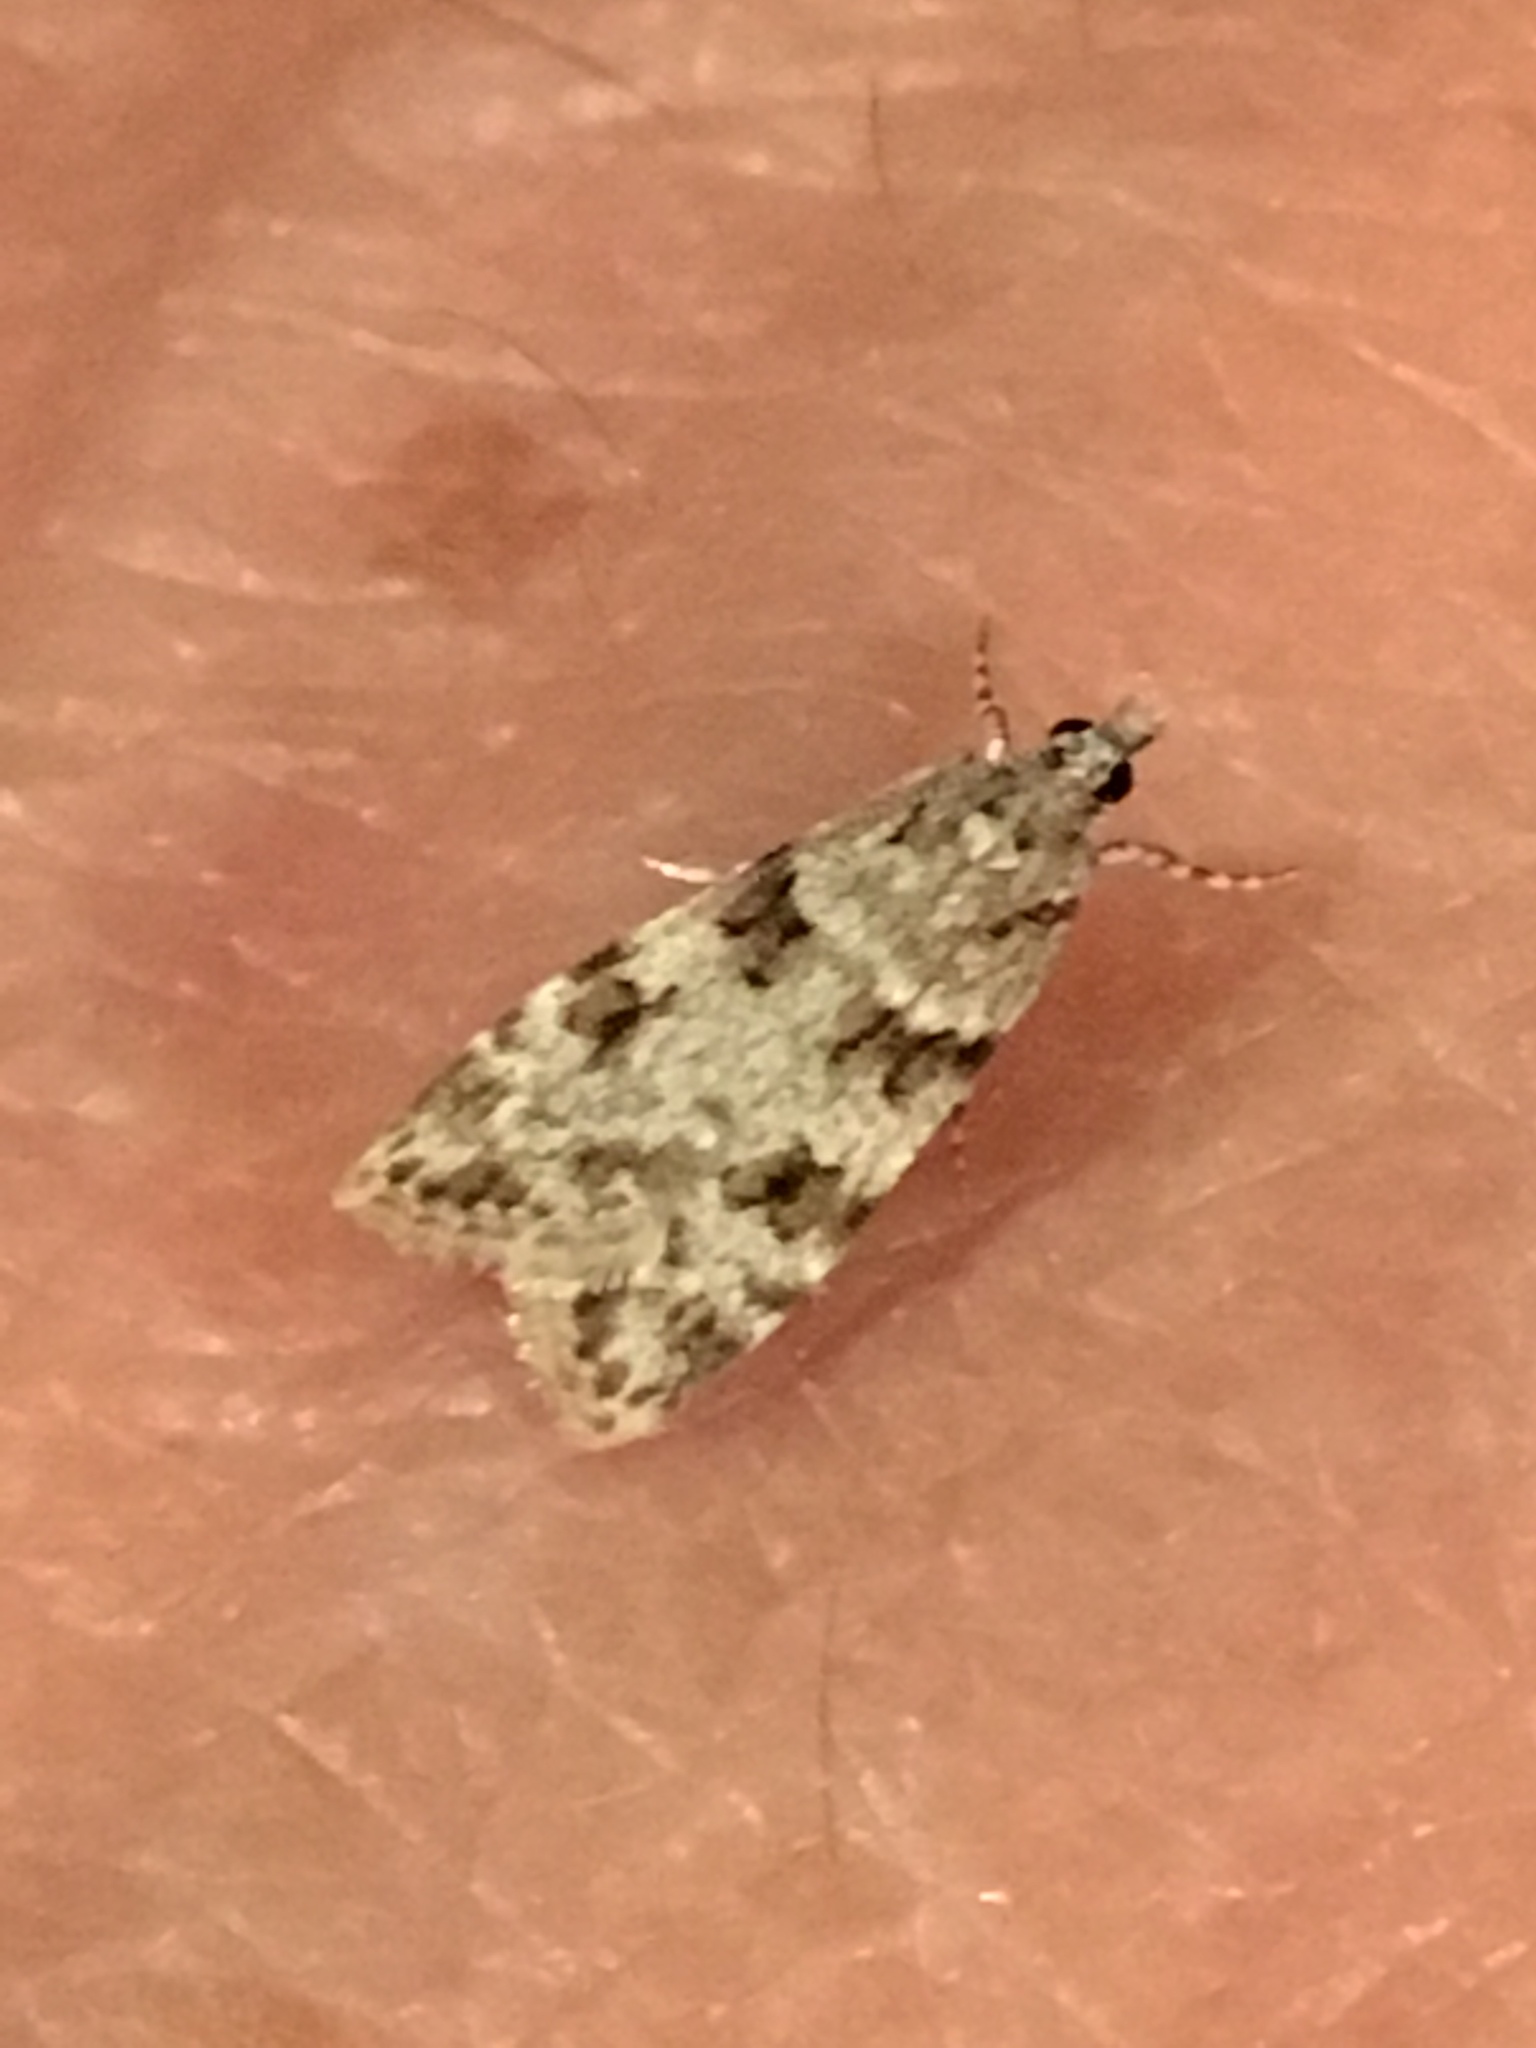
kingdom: Animalia
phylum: Arthropoda
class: Insecta
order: Lepidoptera
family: Crambidae
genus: Scoparia
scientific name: Scoparia biplagialis
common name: Double-striped scoparia moth
